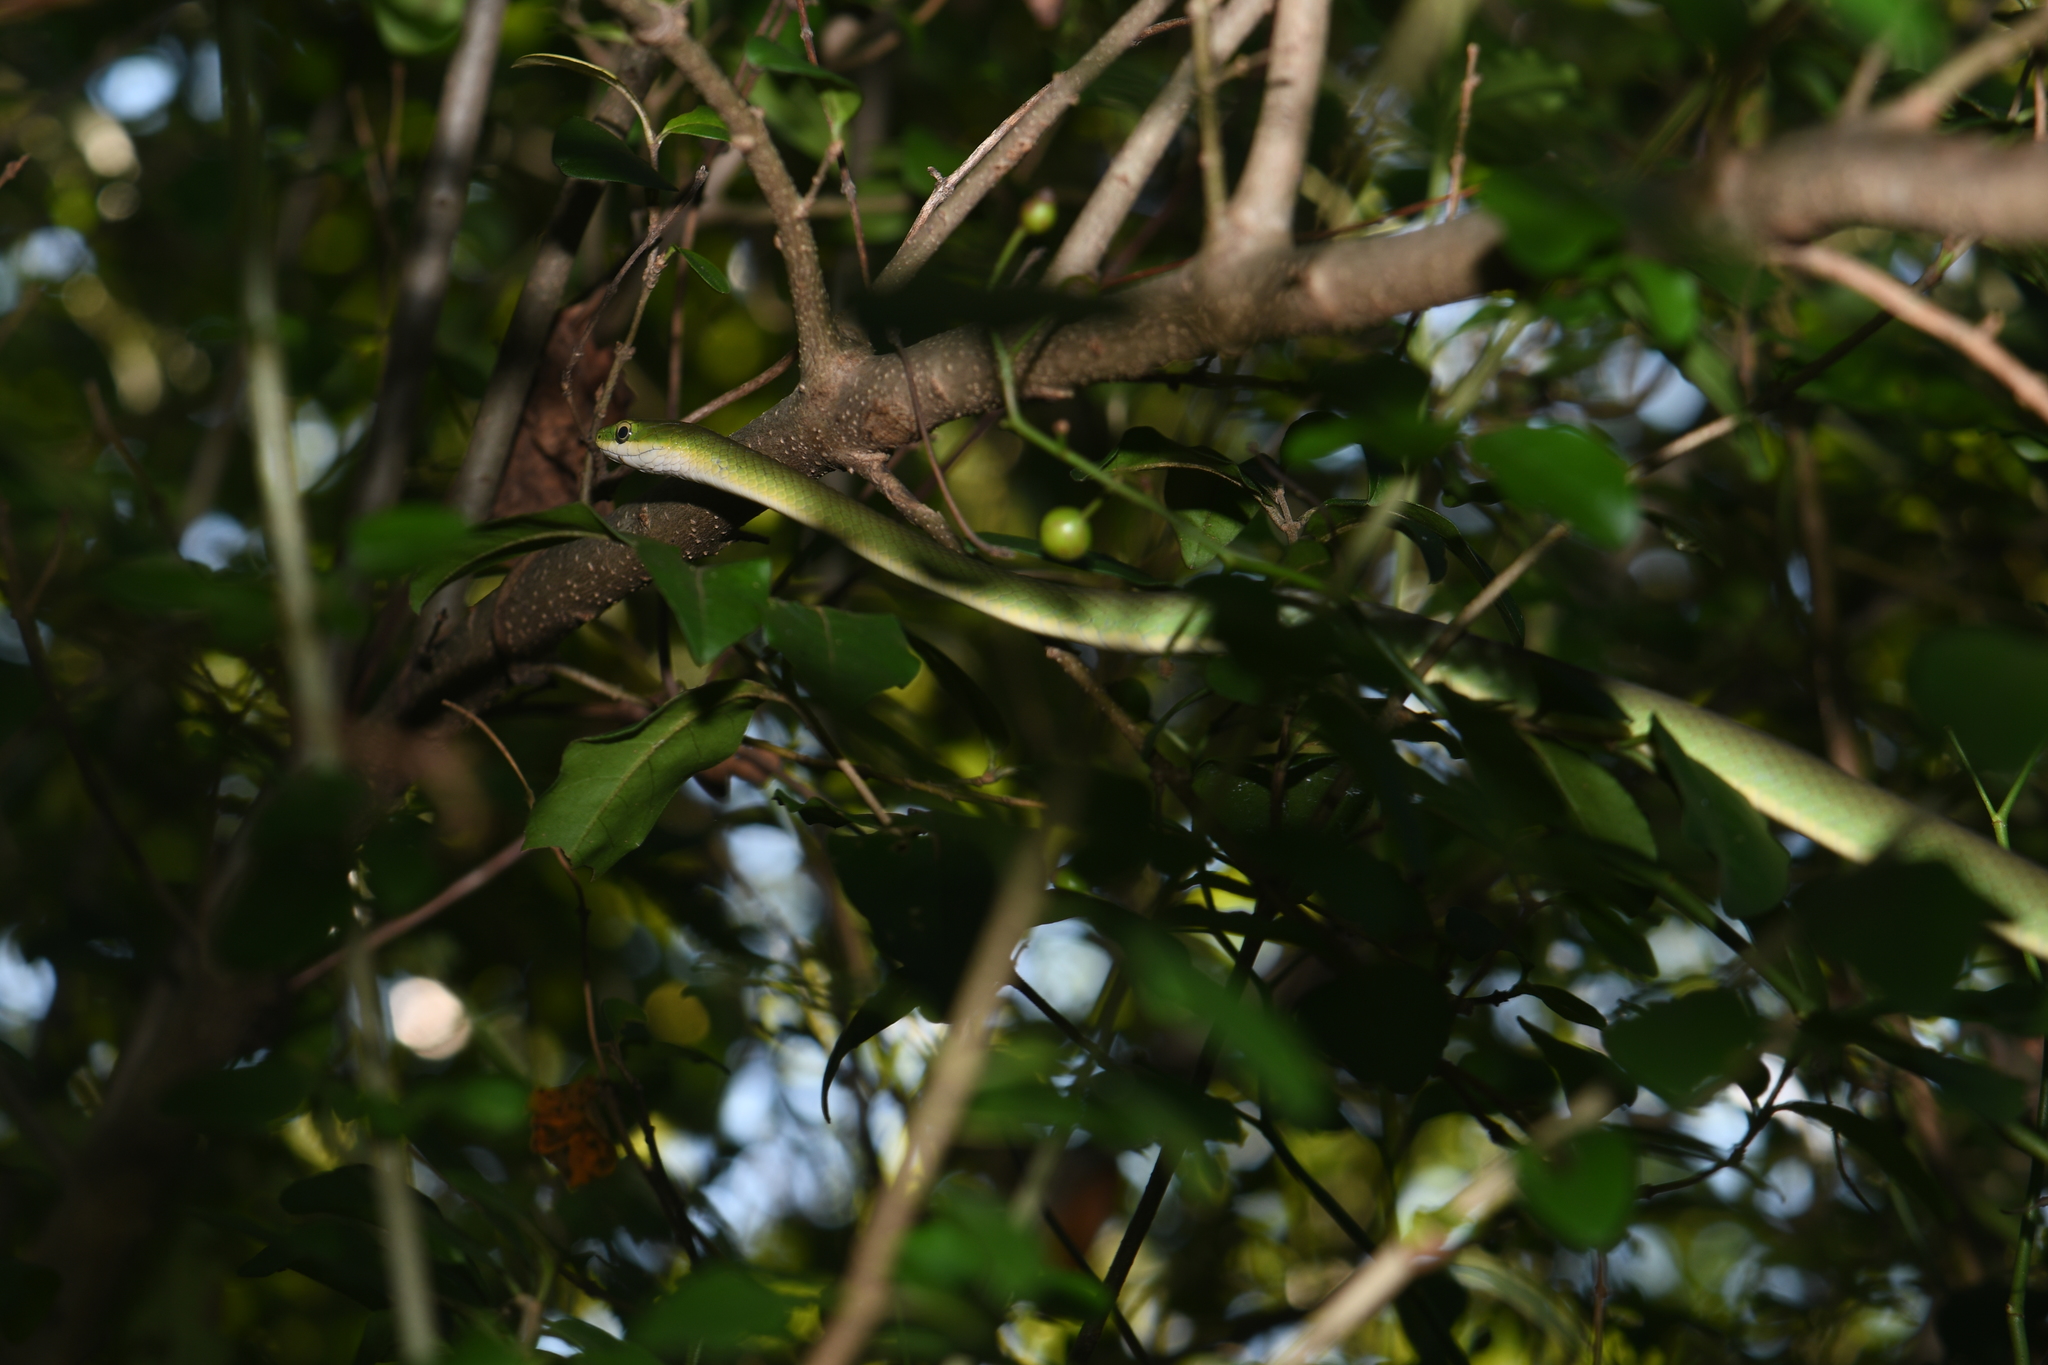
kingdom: Animalia
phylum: Chordata
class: Squamata
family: Colubridae
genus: Opheodrys
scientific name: Opheodrys aestivus
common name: Rough greensnake
